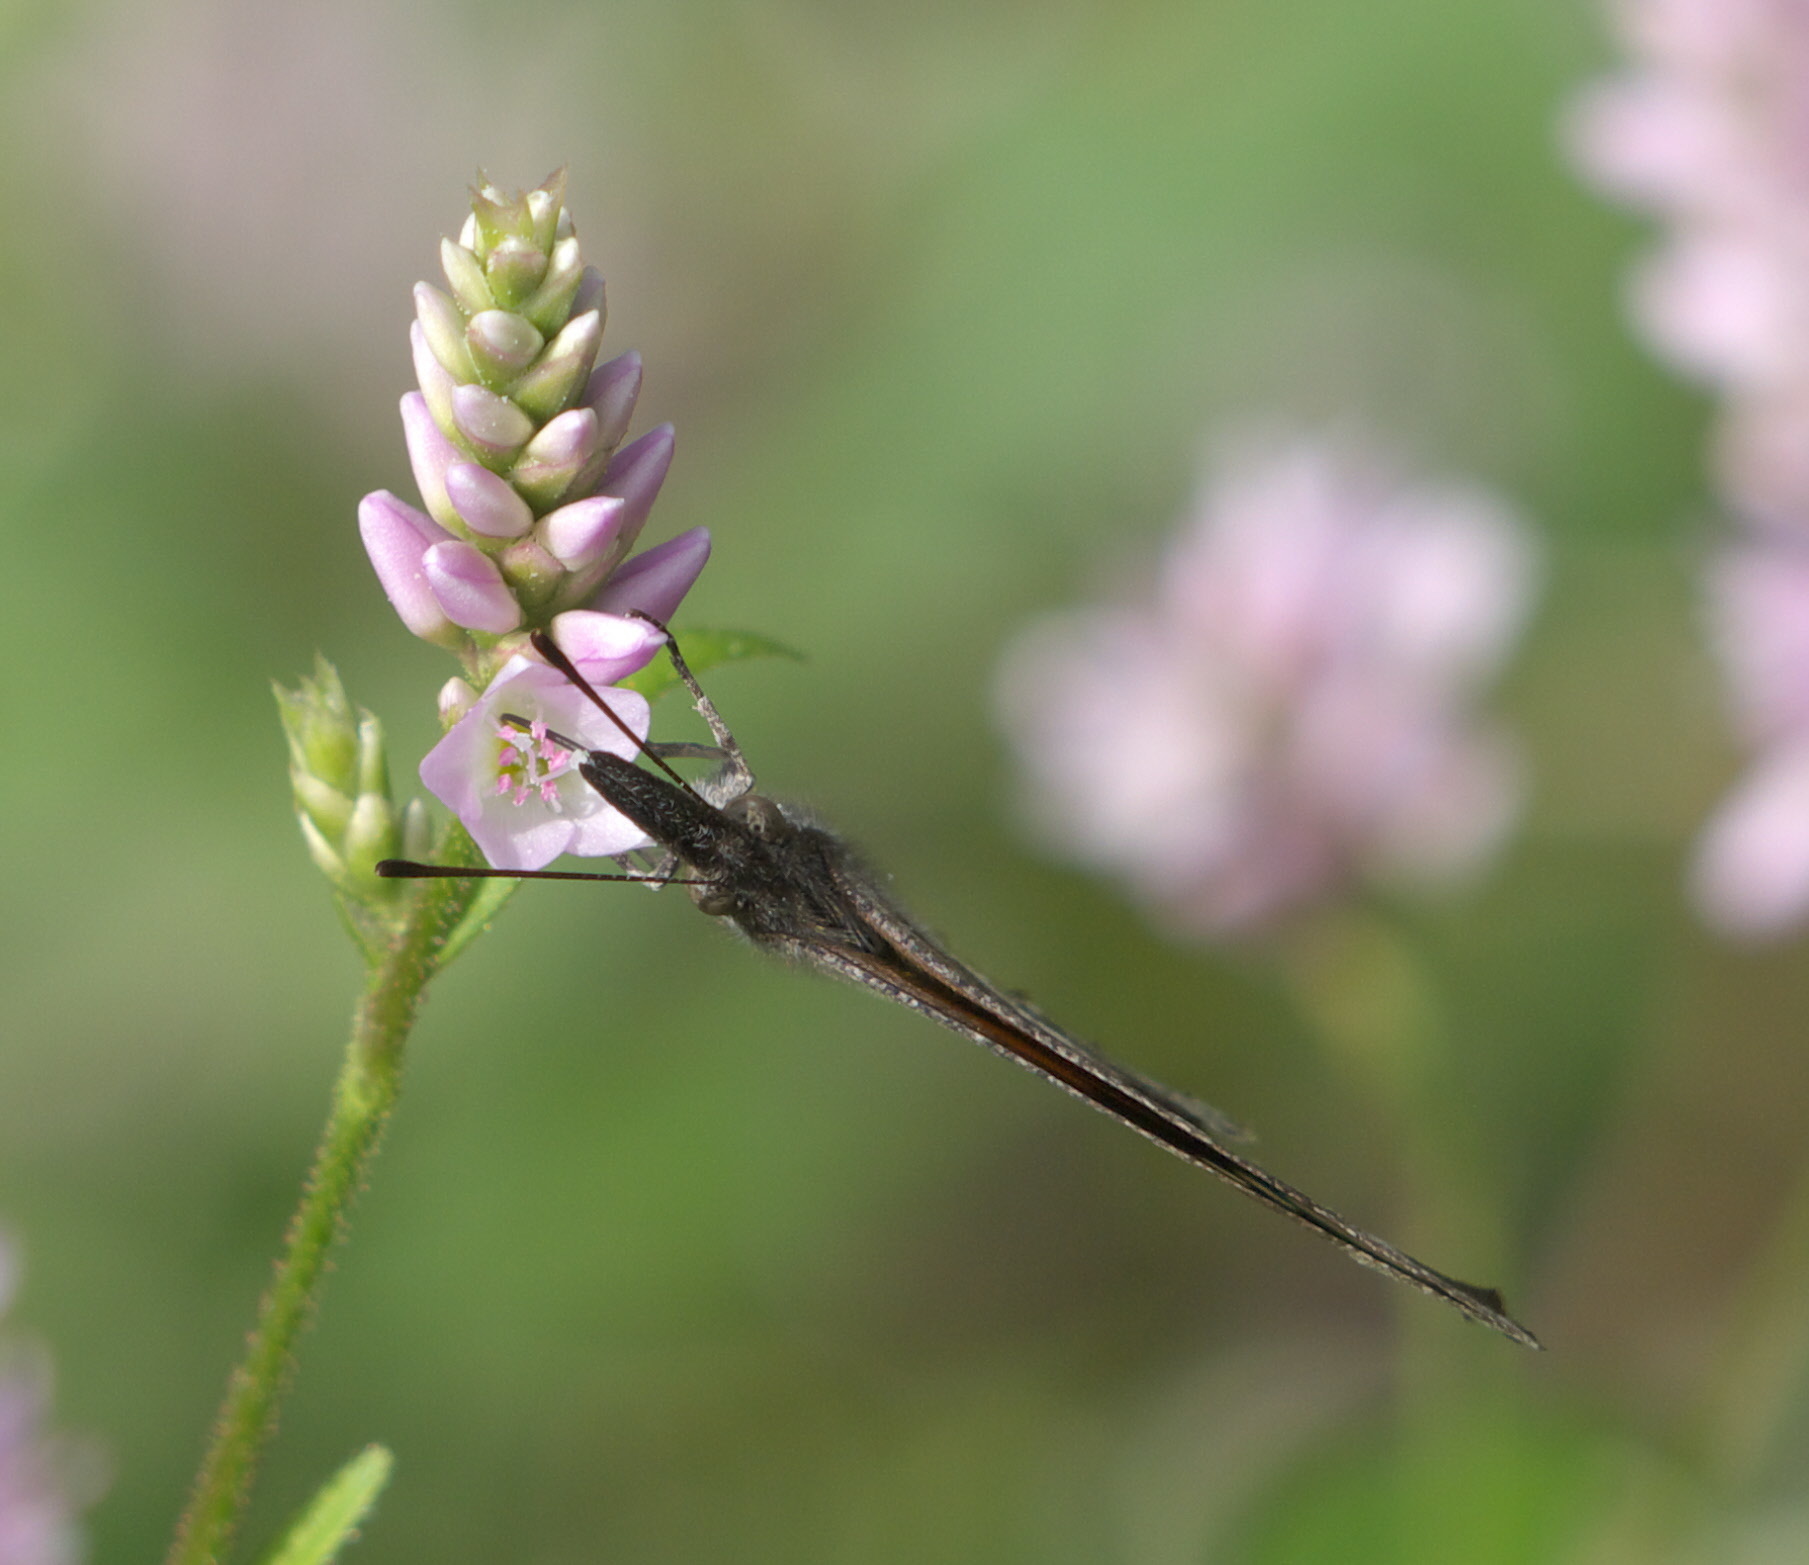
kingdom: Animalia
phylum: Arthropoda
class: Insecta
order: Lepidoptera
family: Nymphalidae
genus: Libytheana
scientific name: Libytheana carinenta
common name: American snout
